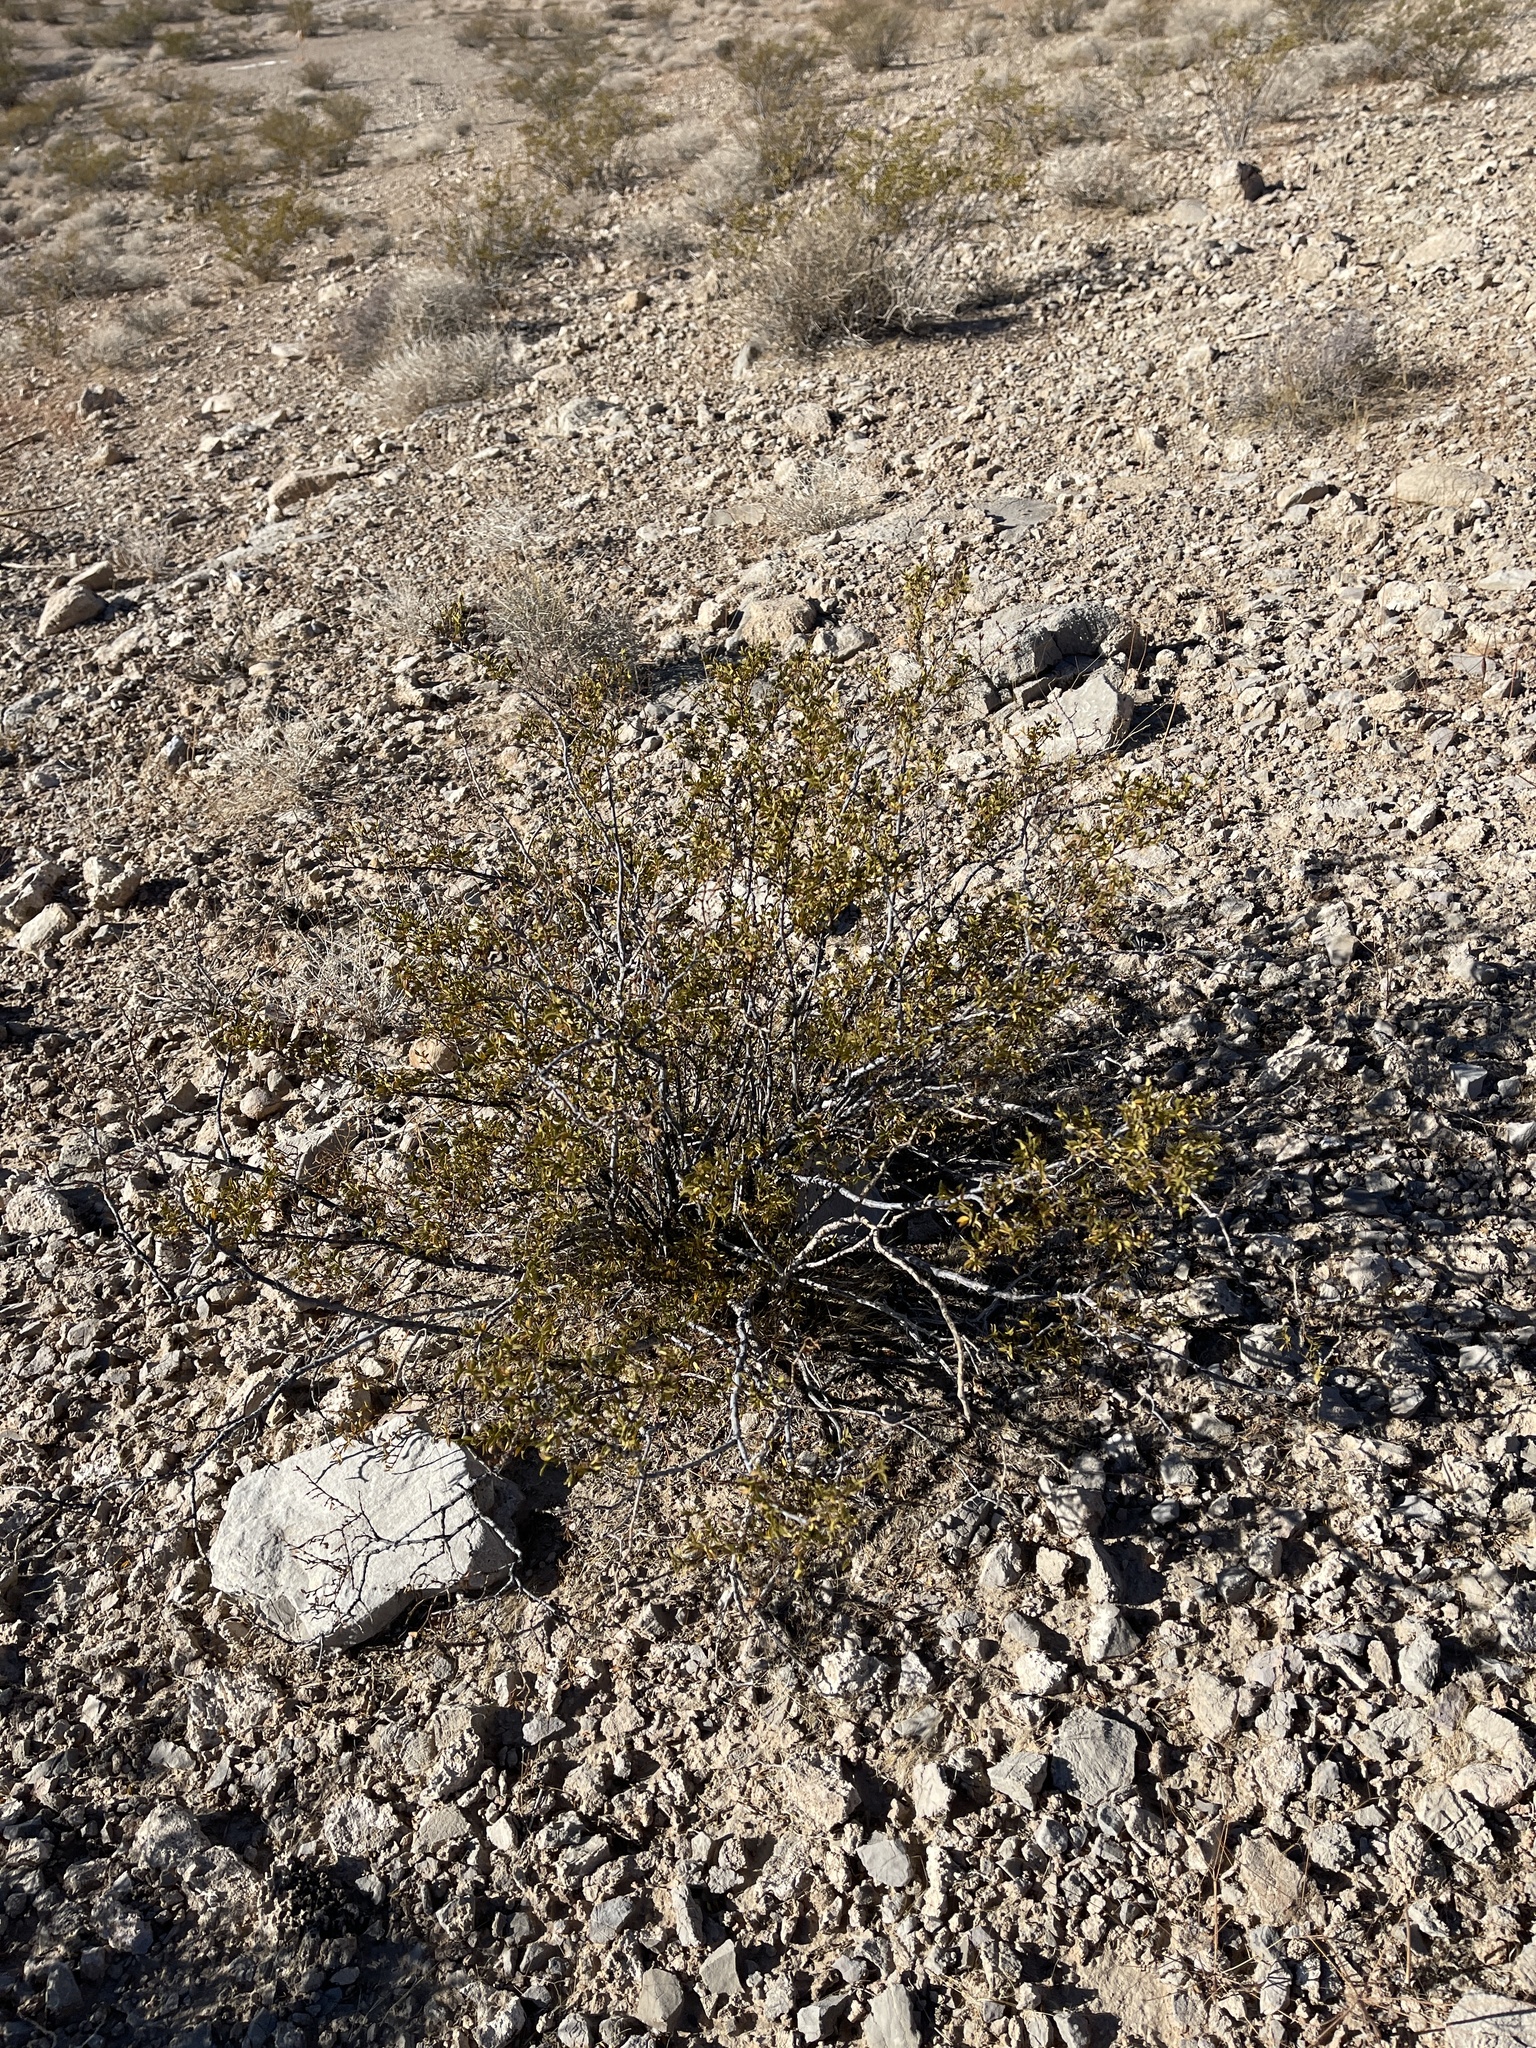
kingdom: Plantae
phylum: Tracheophyta
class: Magnoliopsida
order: Zygophyllales
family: Zygophyllaceae
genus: Larrea
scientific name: Larrea tridentata
